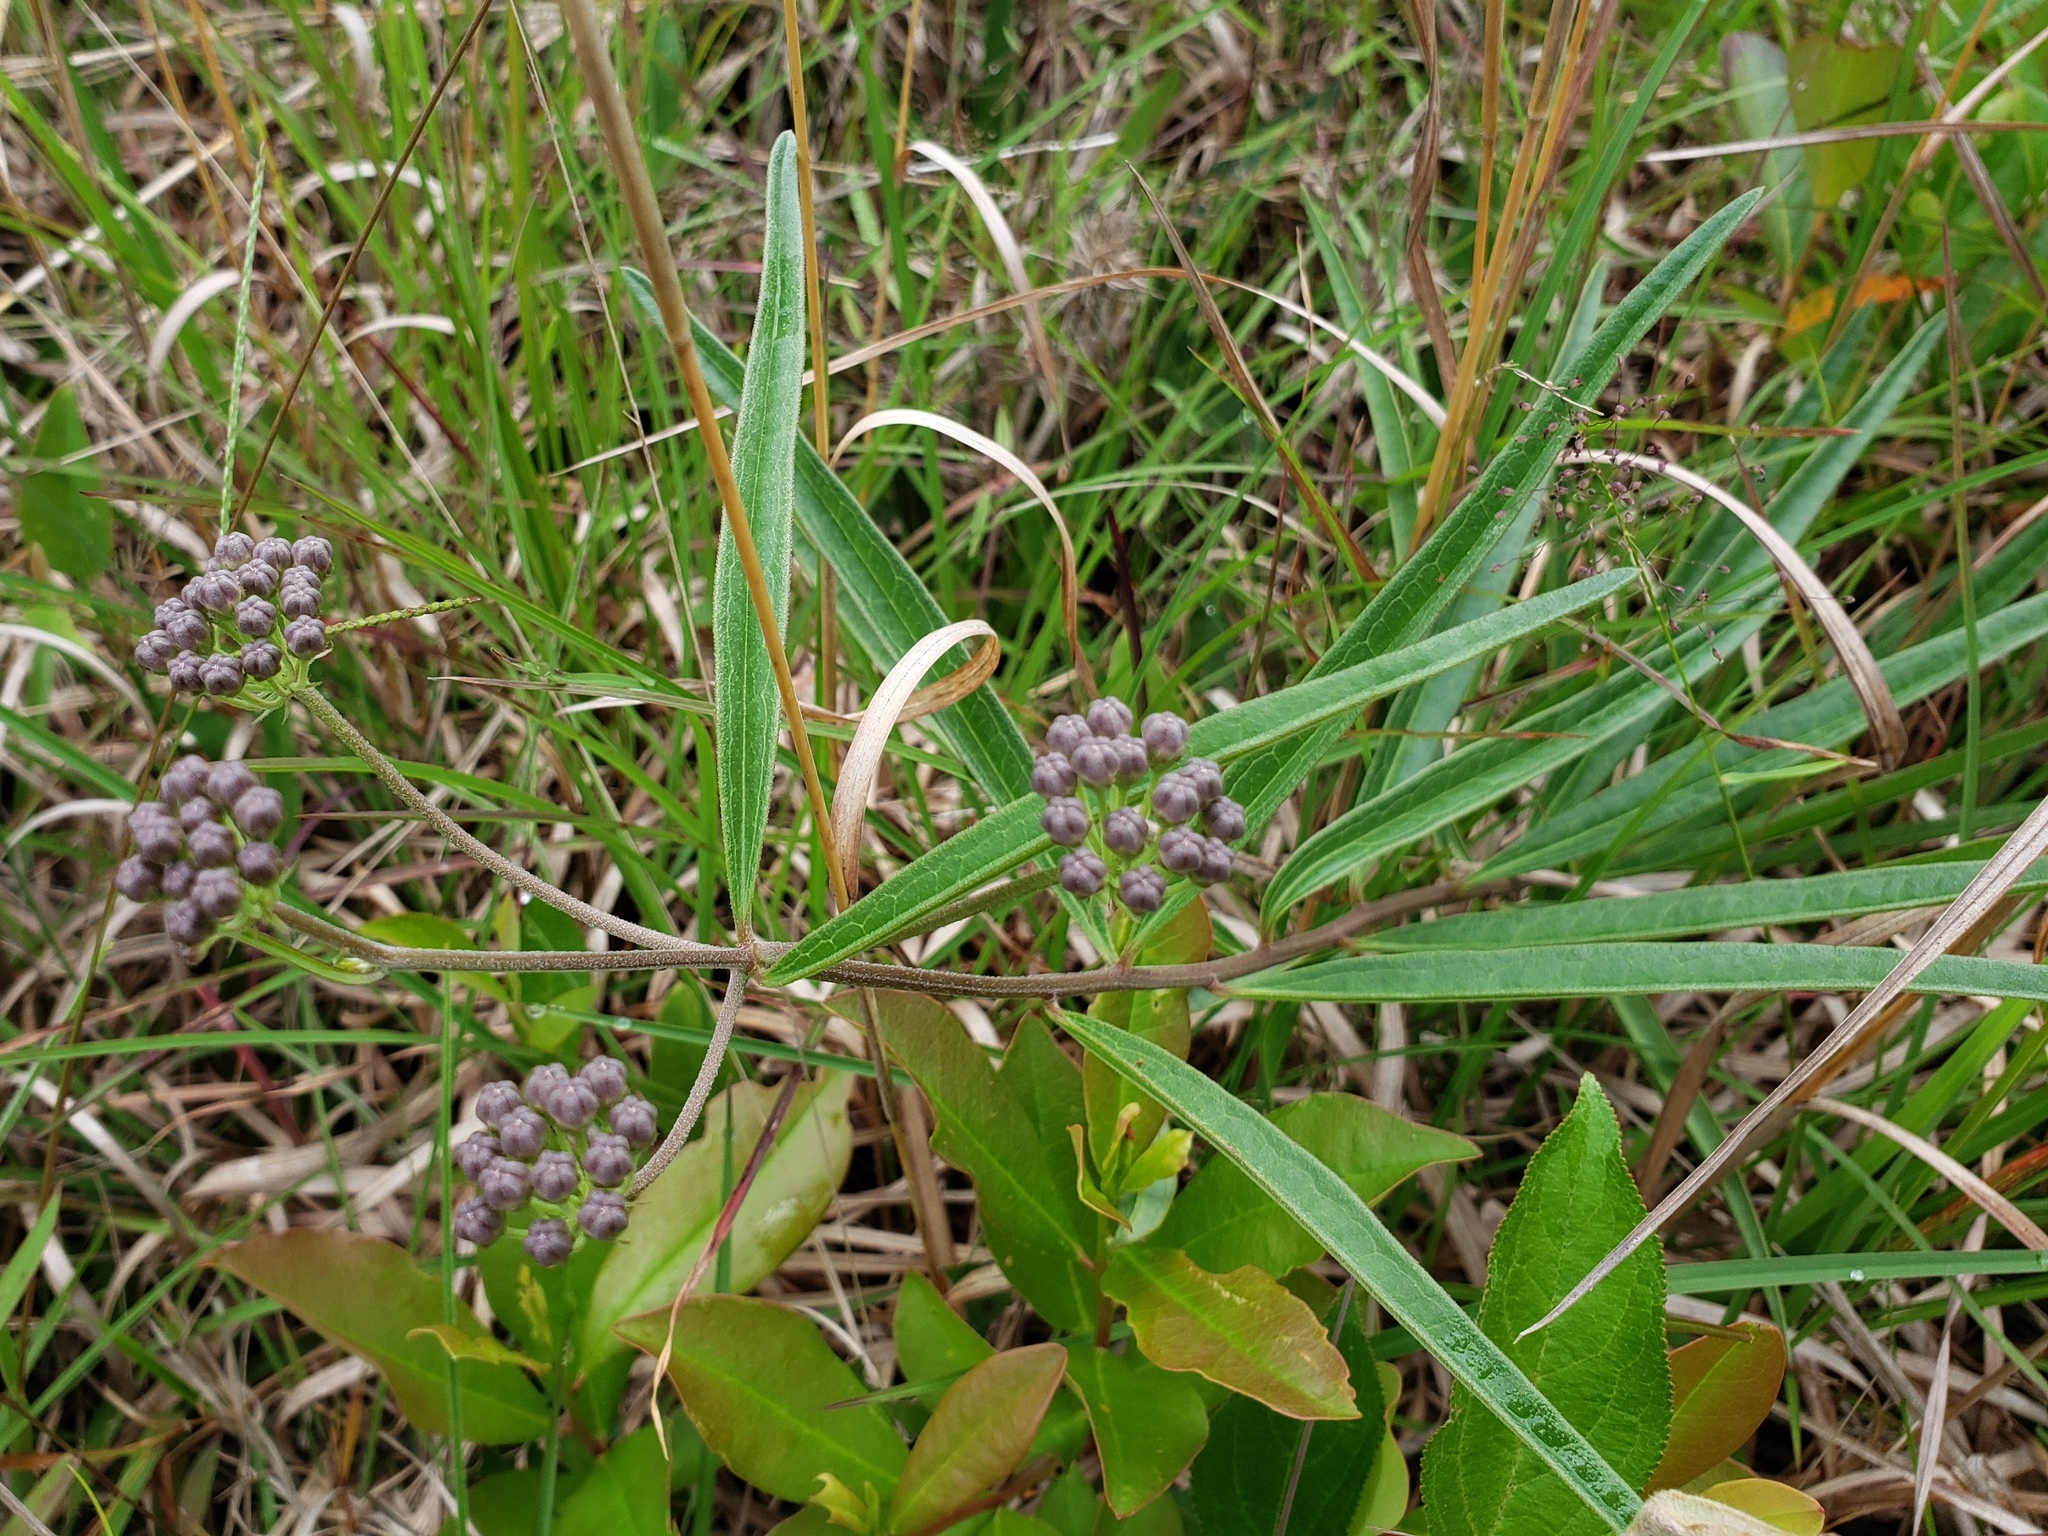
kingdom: Plantae
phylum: Tracheophyta
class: Magnoliopsida
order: Gentianales
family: Apocynaceae
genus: Asclepias
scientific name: Asclepias longifolia
